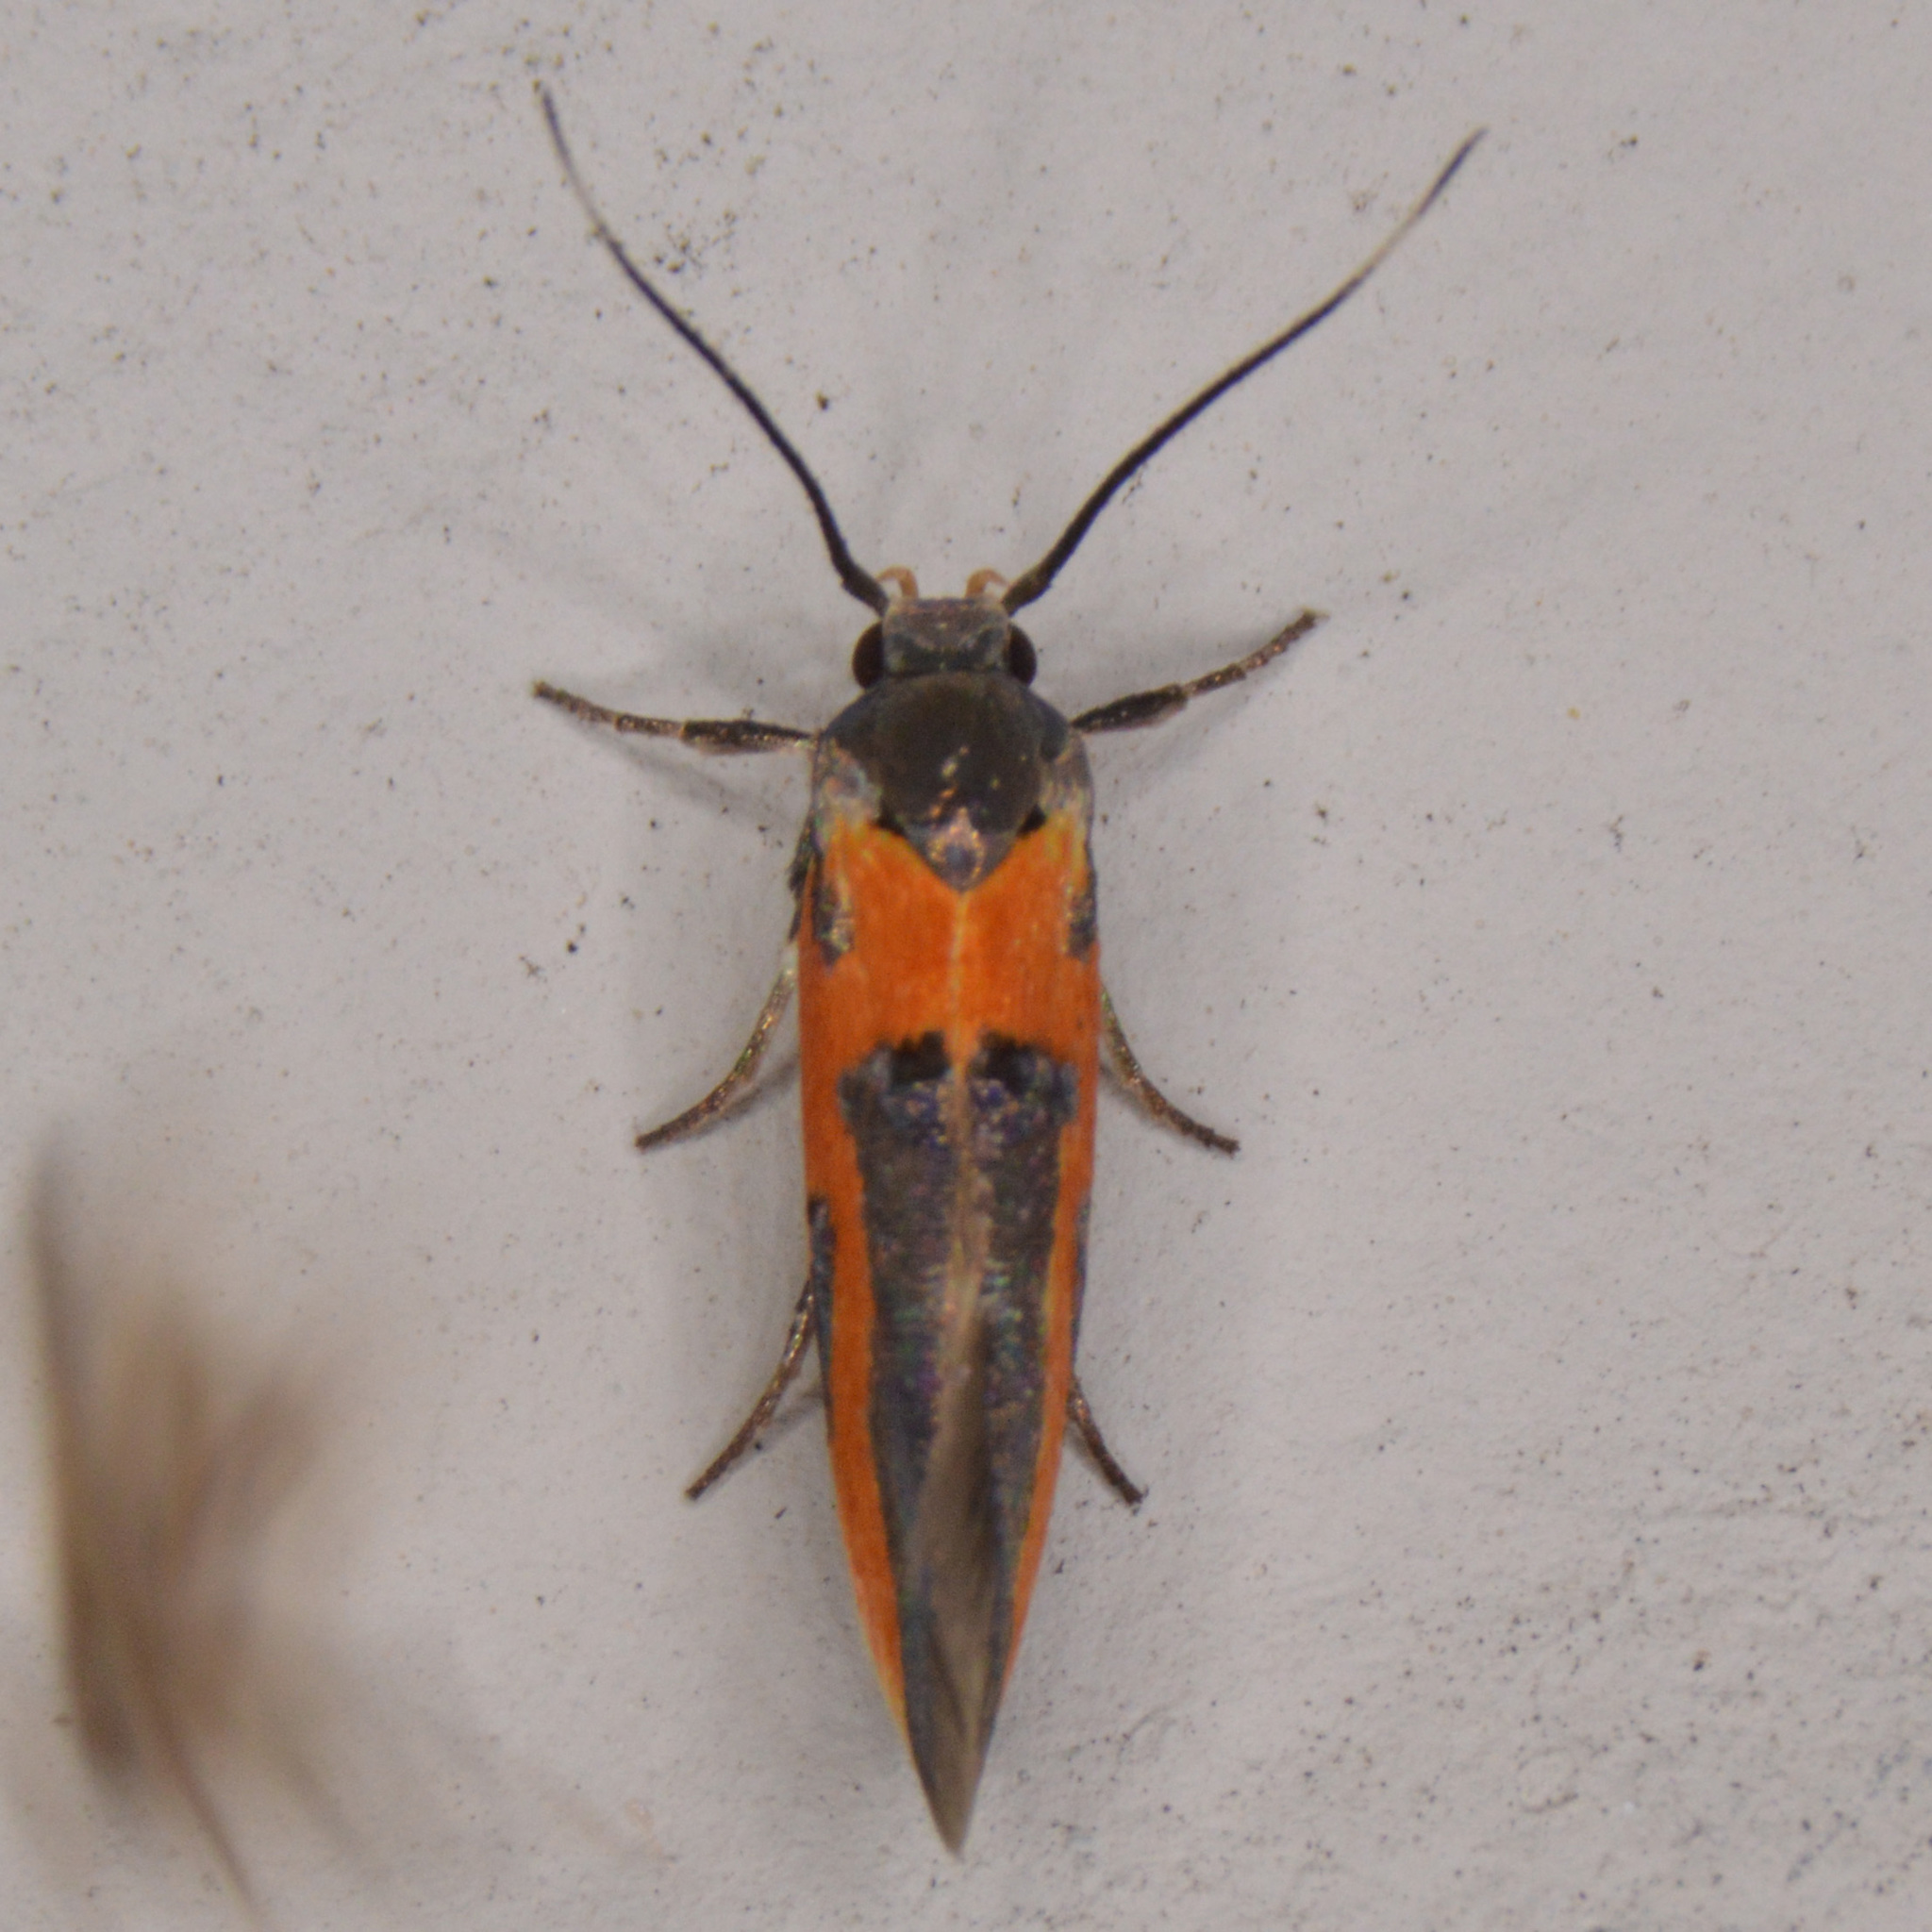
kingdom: Animalia
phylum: Arthropoda
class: Insecta
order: Lepidoptera
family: Cosmopterigidae
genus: Euclemensia
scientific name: Euclemensia bassettella
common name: Kermes scale moth
